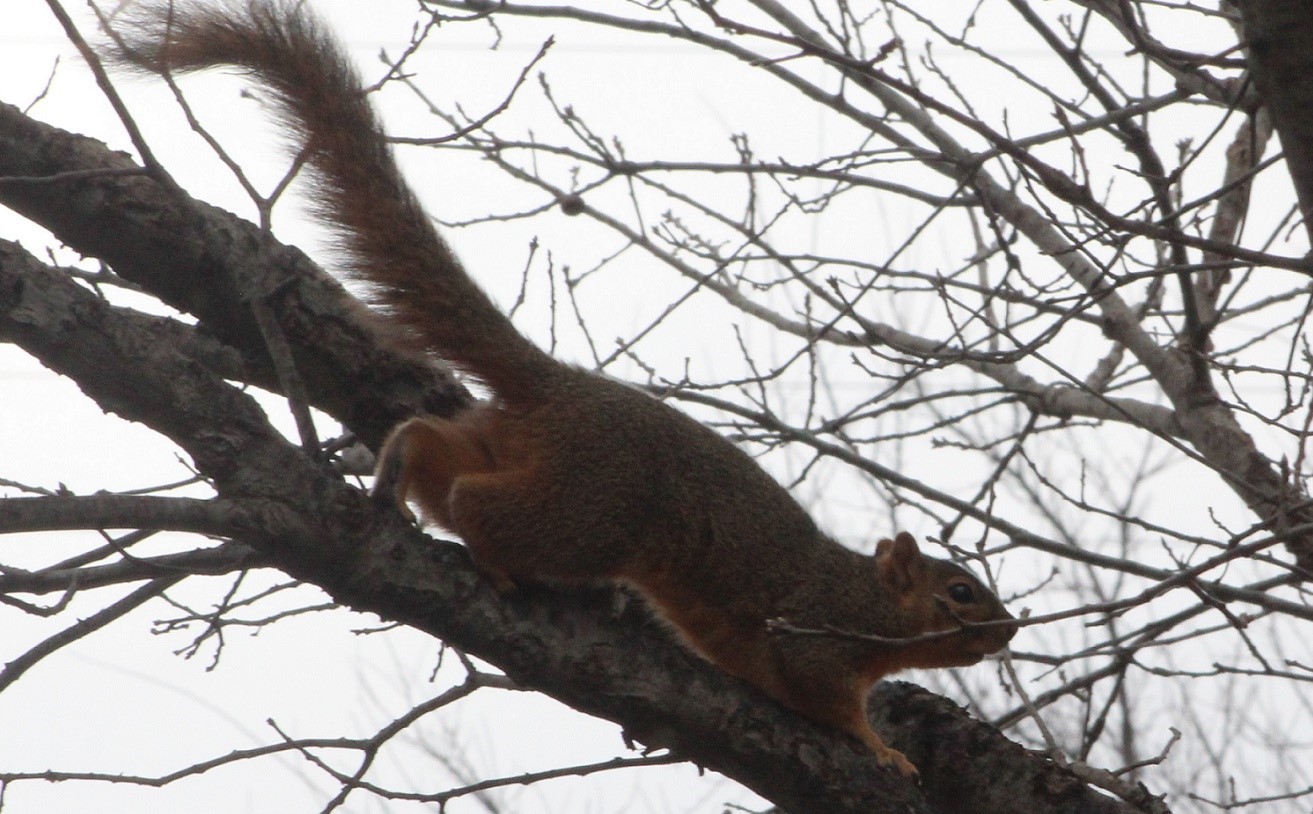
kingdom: Animalia
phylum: Chordata
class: Mammalia
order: Rodentia
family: Sciuridae
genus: Sciurus
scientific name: Sciurus niger
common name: Fox squirrel
